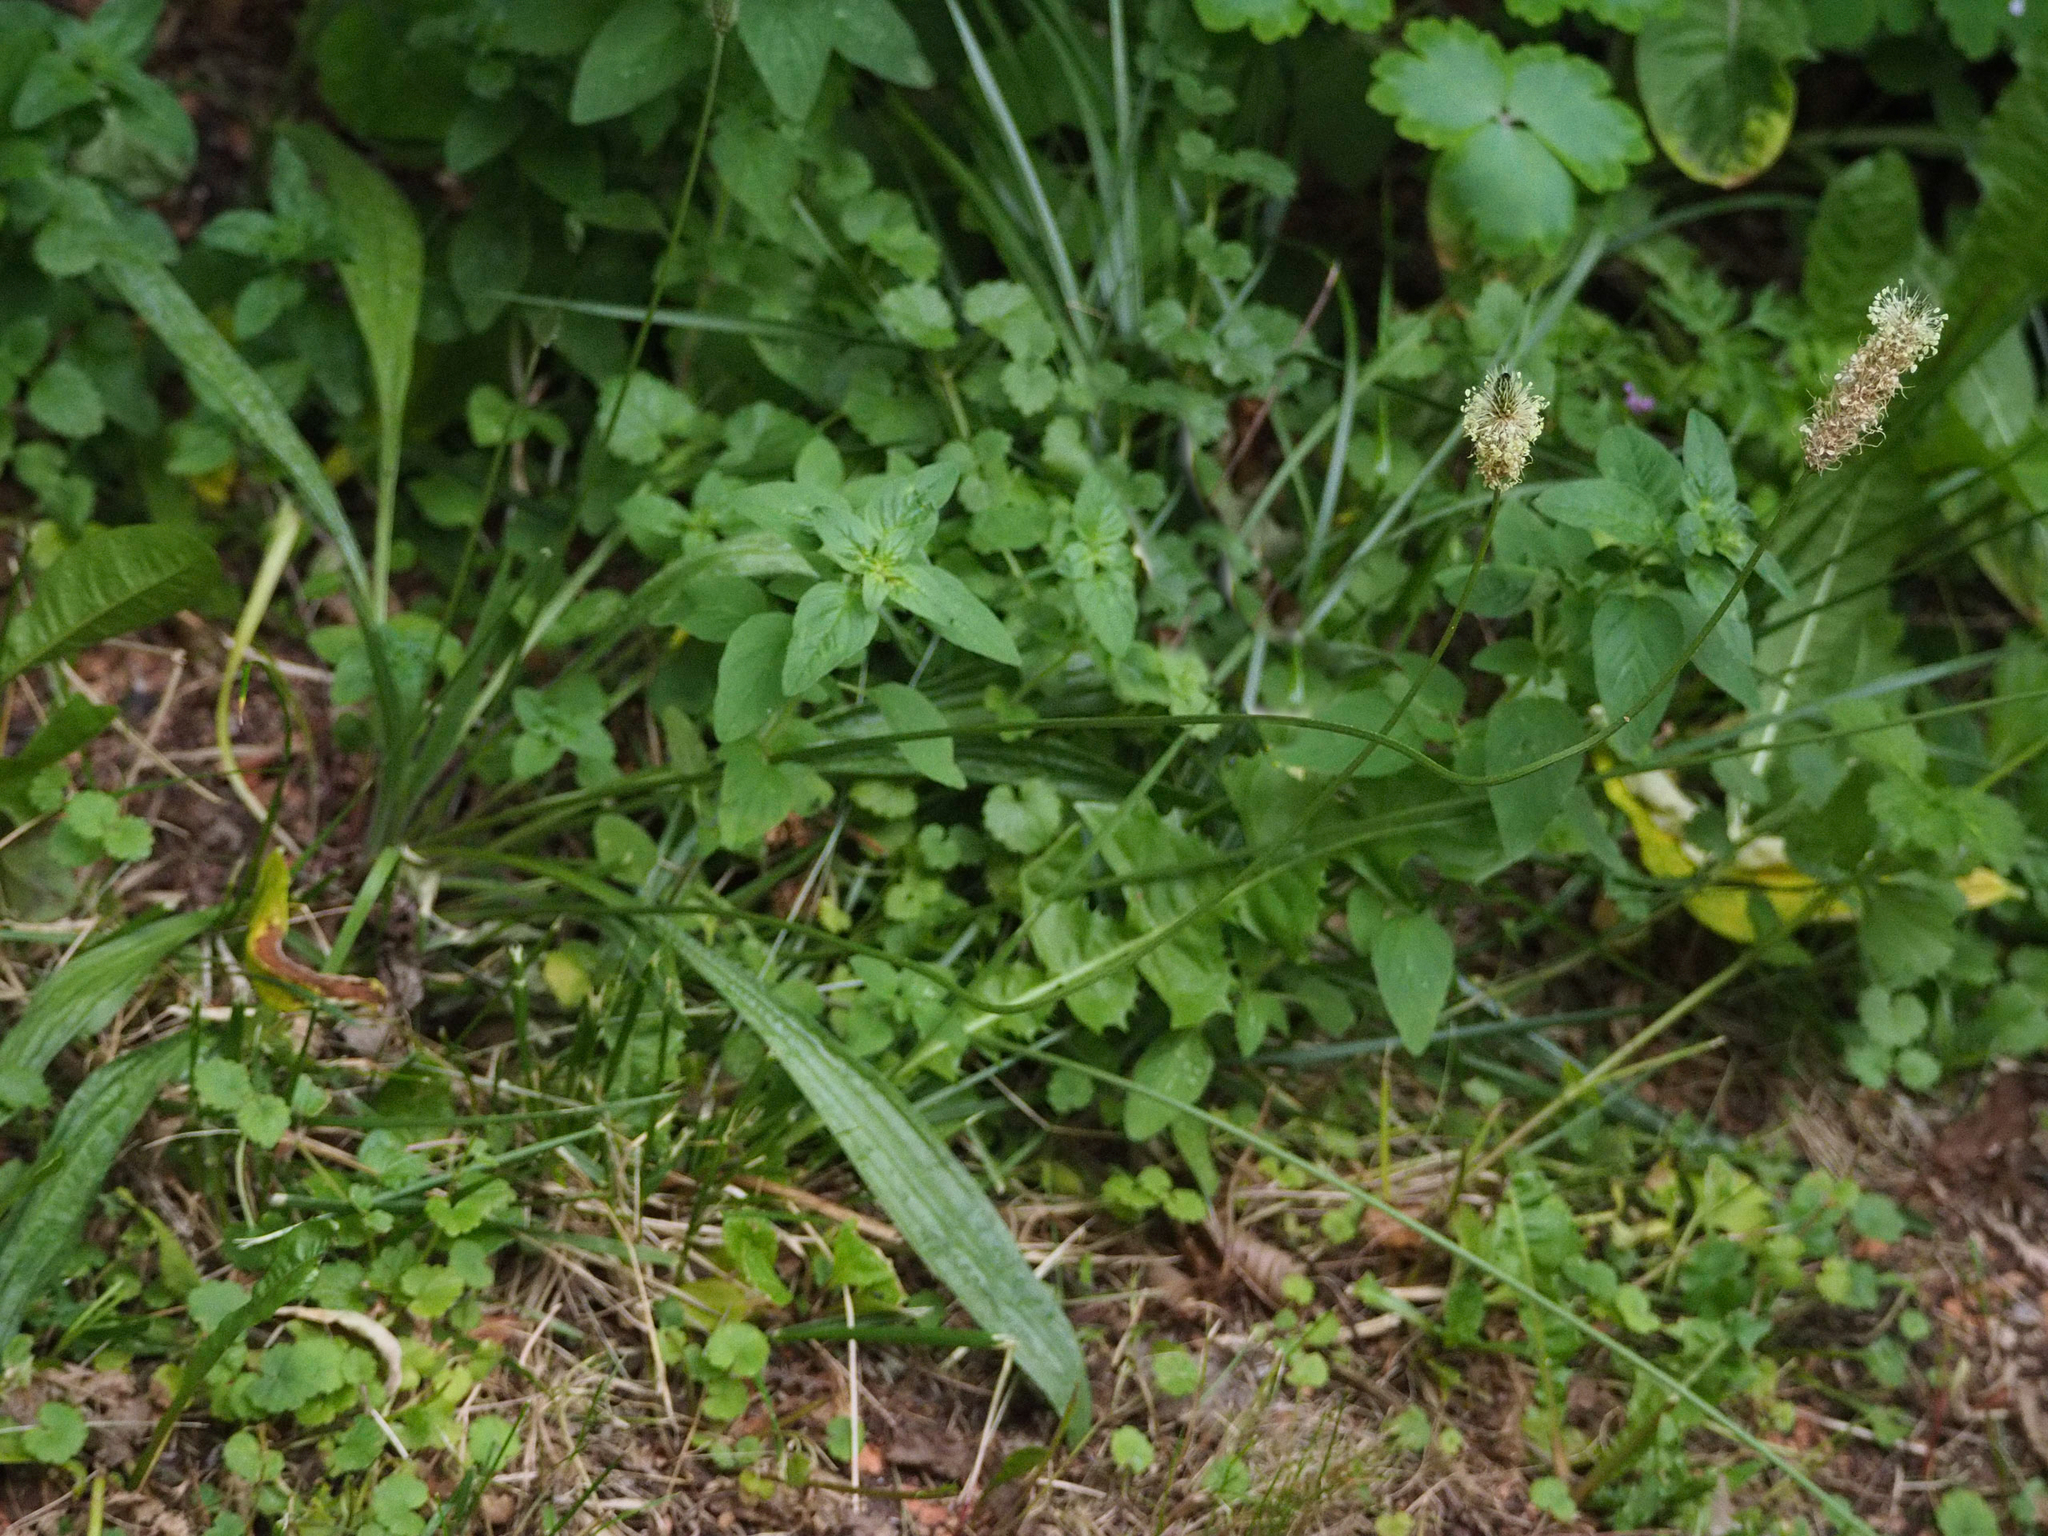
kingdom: Plantae
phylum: Tracheophyta
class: Magnoliopsida
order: Lamiales
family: Plantaginaceae
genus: Plantago
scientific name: Plantago lanceolata
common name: Ribwort plantain
